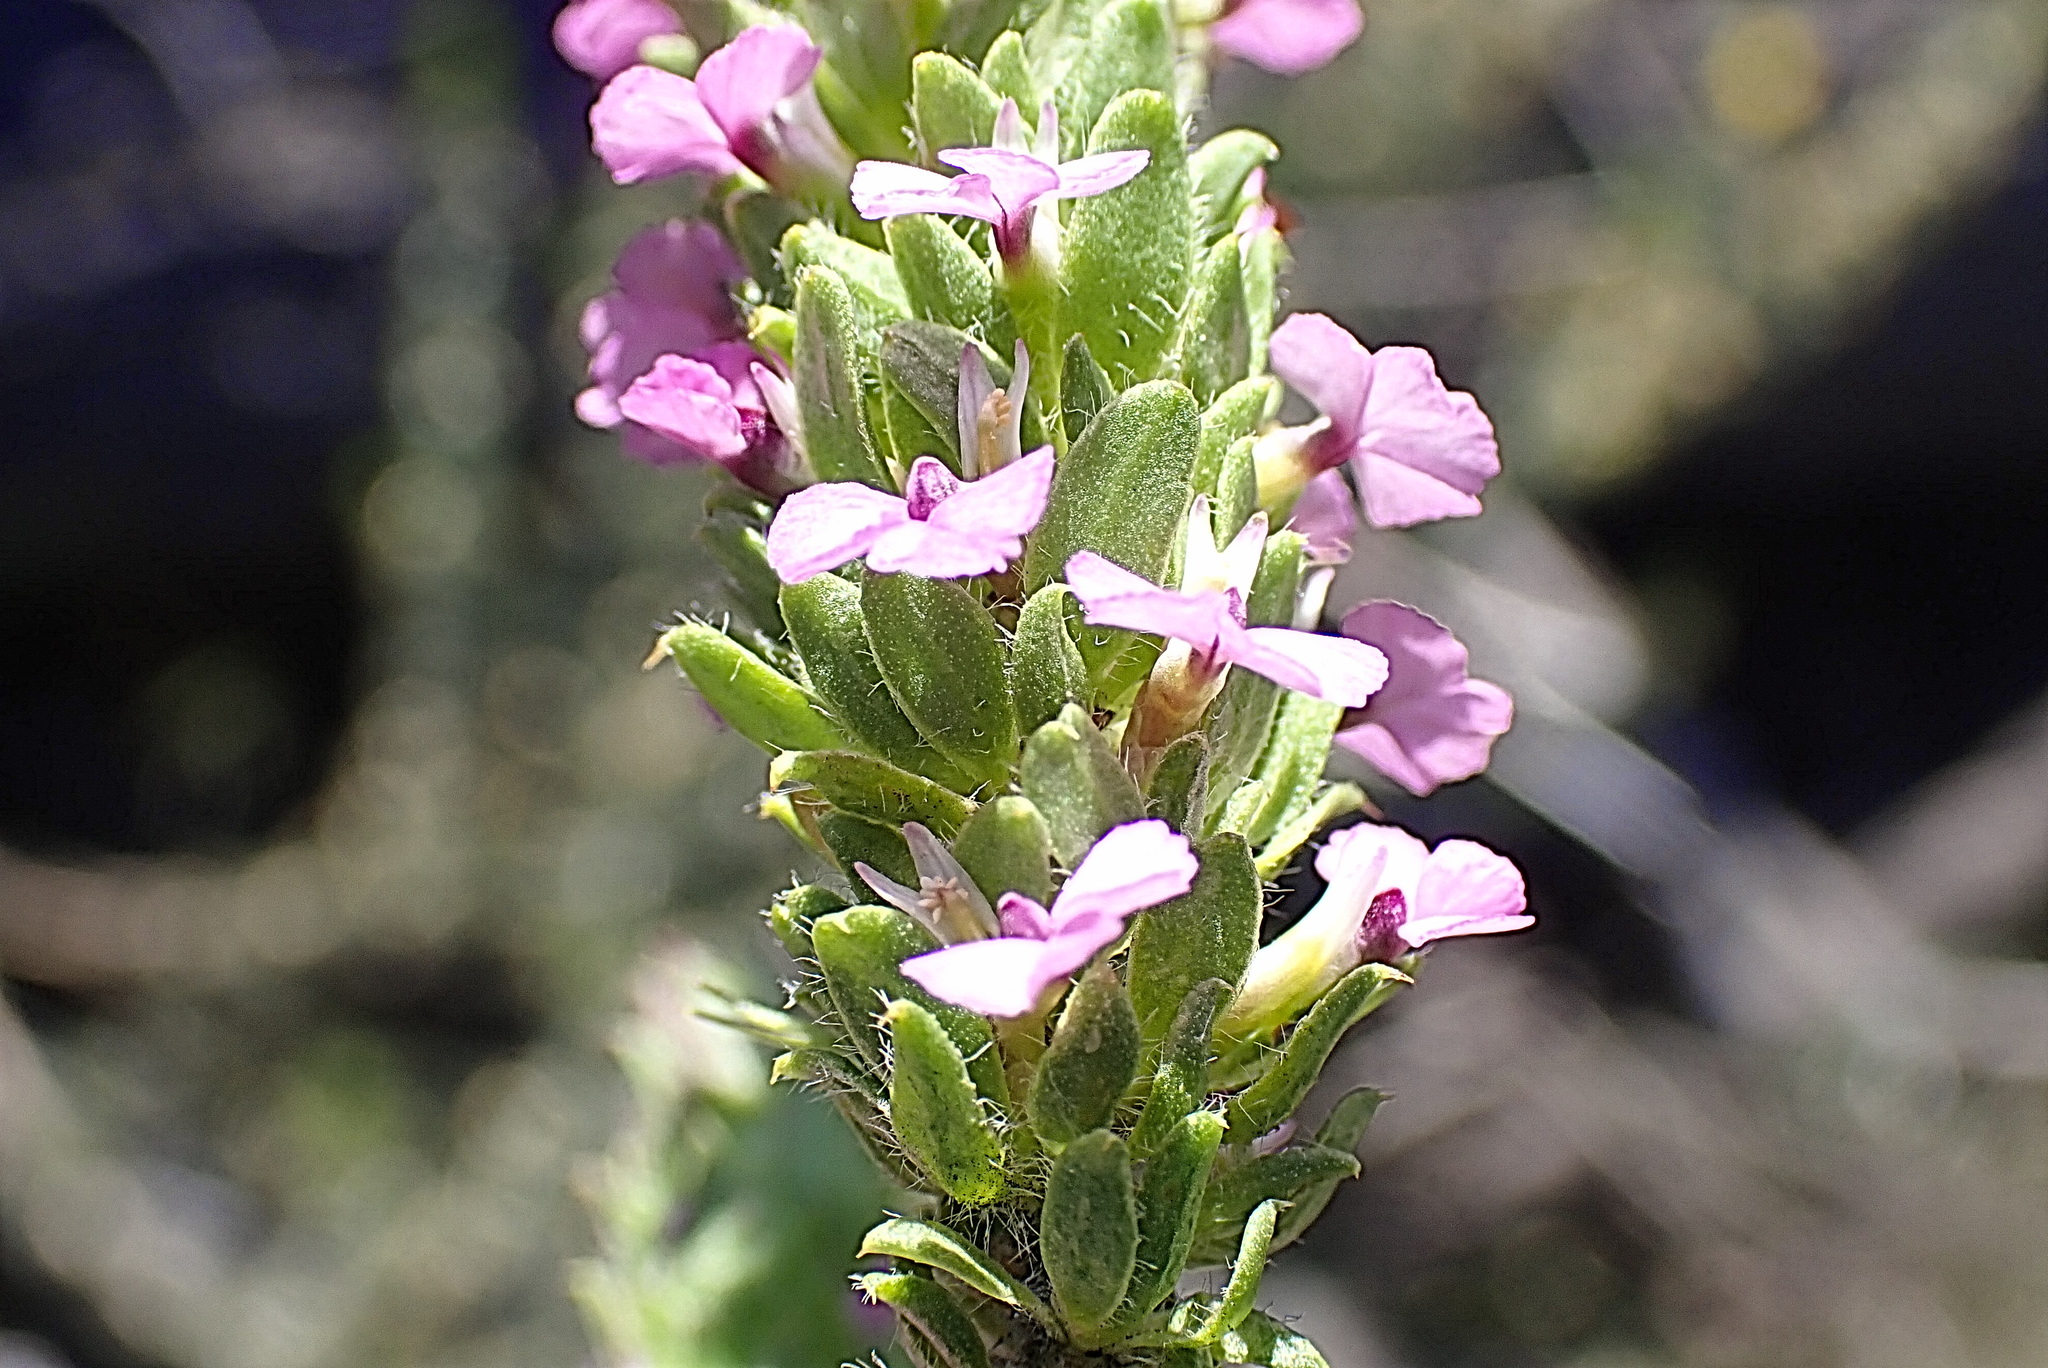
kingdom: Plantae
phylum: Tracheophyta
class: Magnoliopsida
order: Fabales
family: Polygalaceae
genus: Muraltia
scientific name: Muraltia ericifolia
